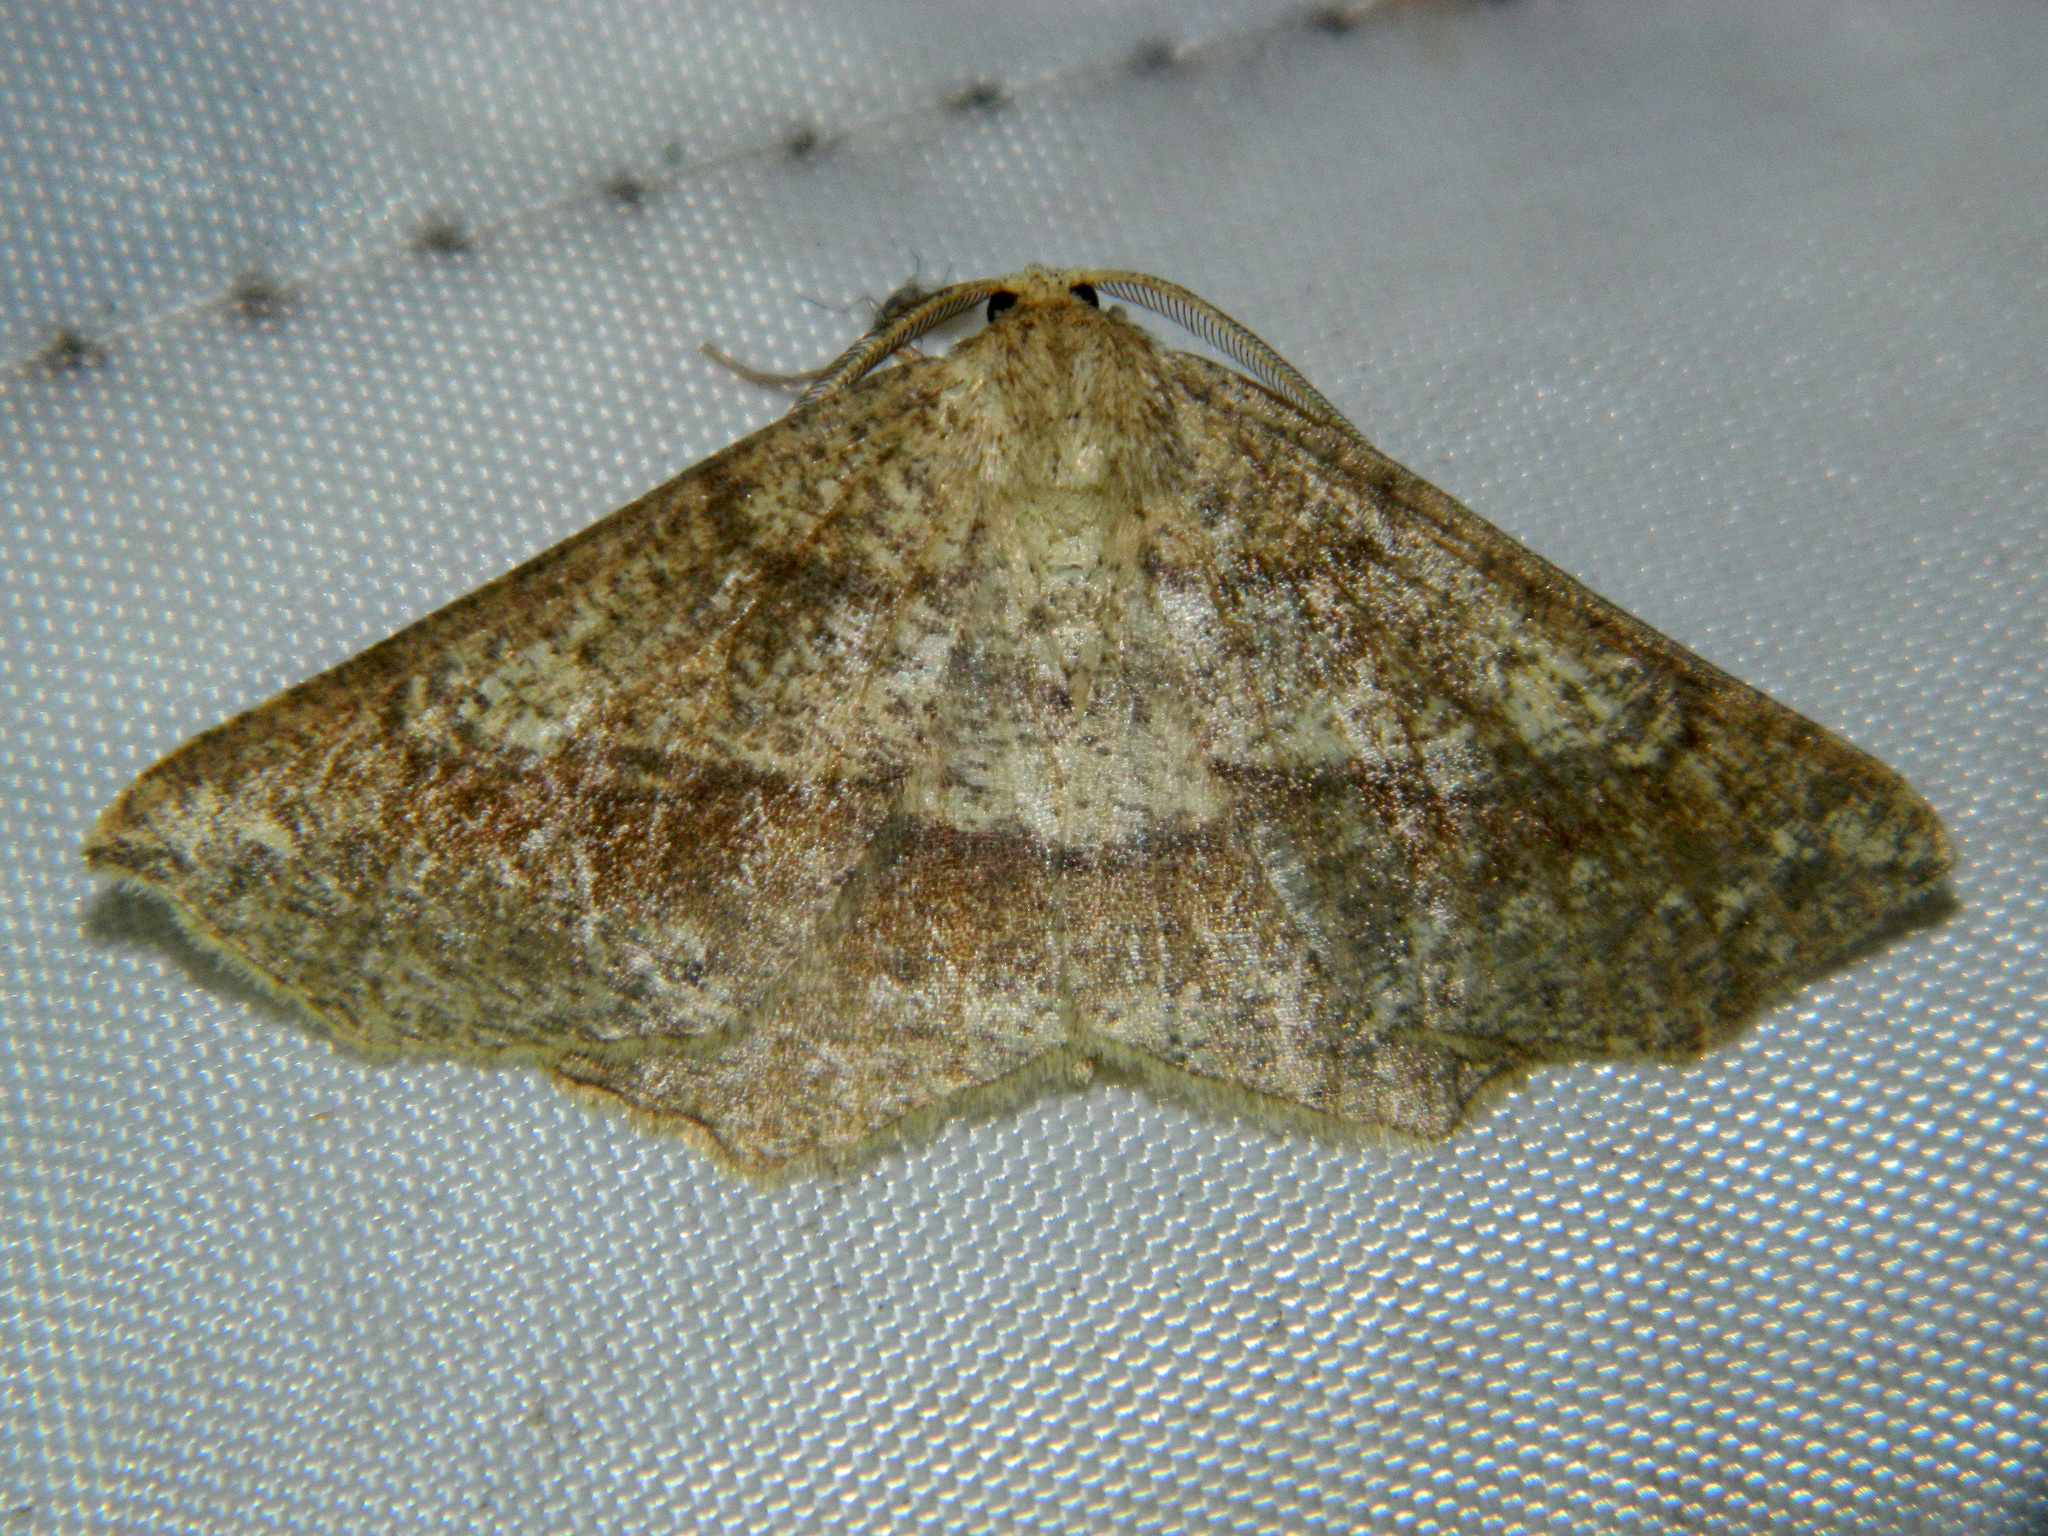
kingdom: Animalia
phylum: Arthropoda
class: Insecta
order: Lepidoptera
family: Geometridae
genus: Euchlaena
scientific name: Euchlaena marginaria
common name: Ochre euchlaena moth
